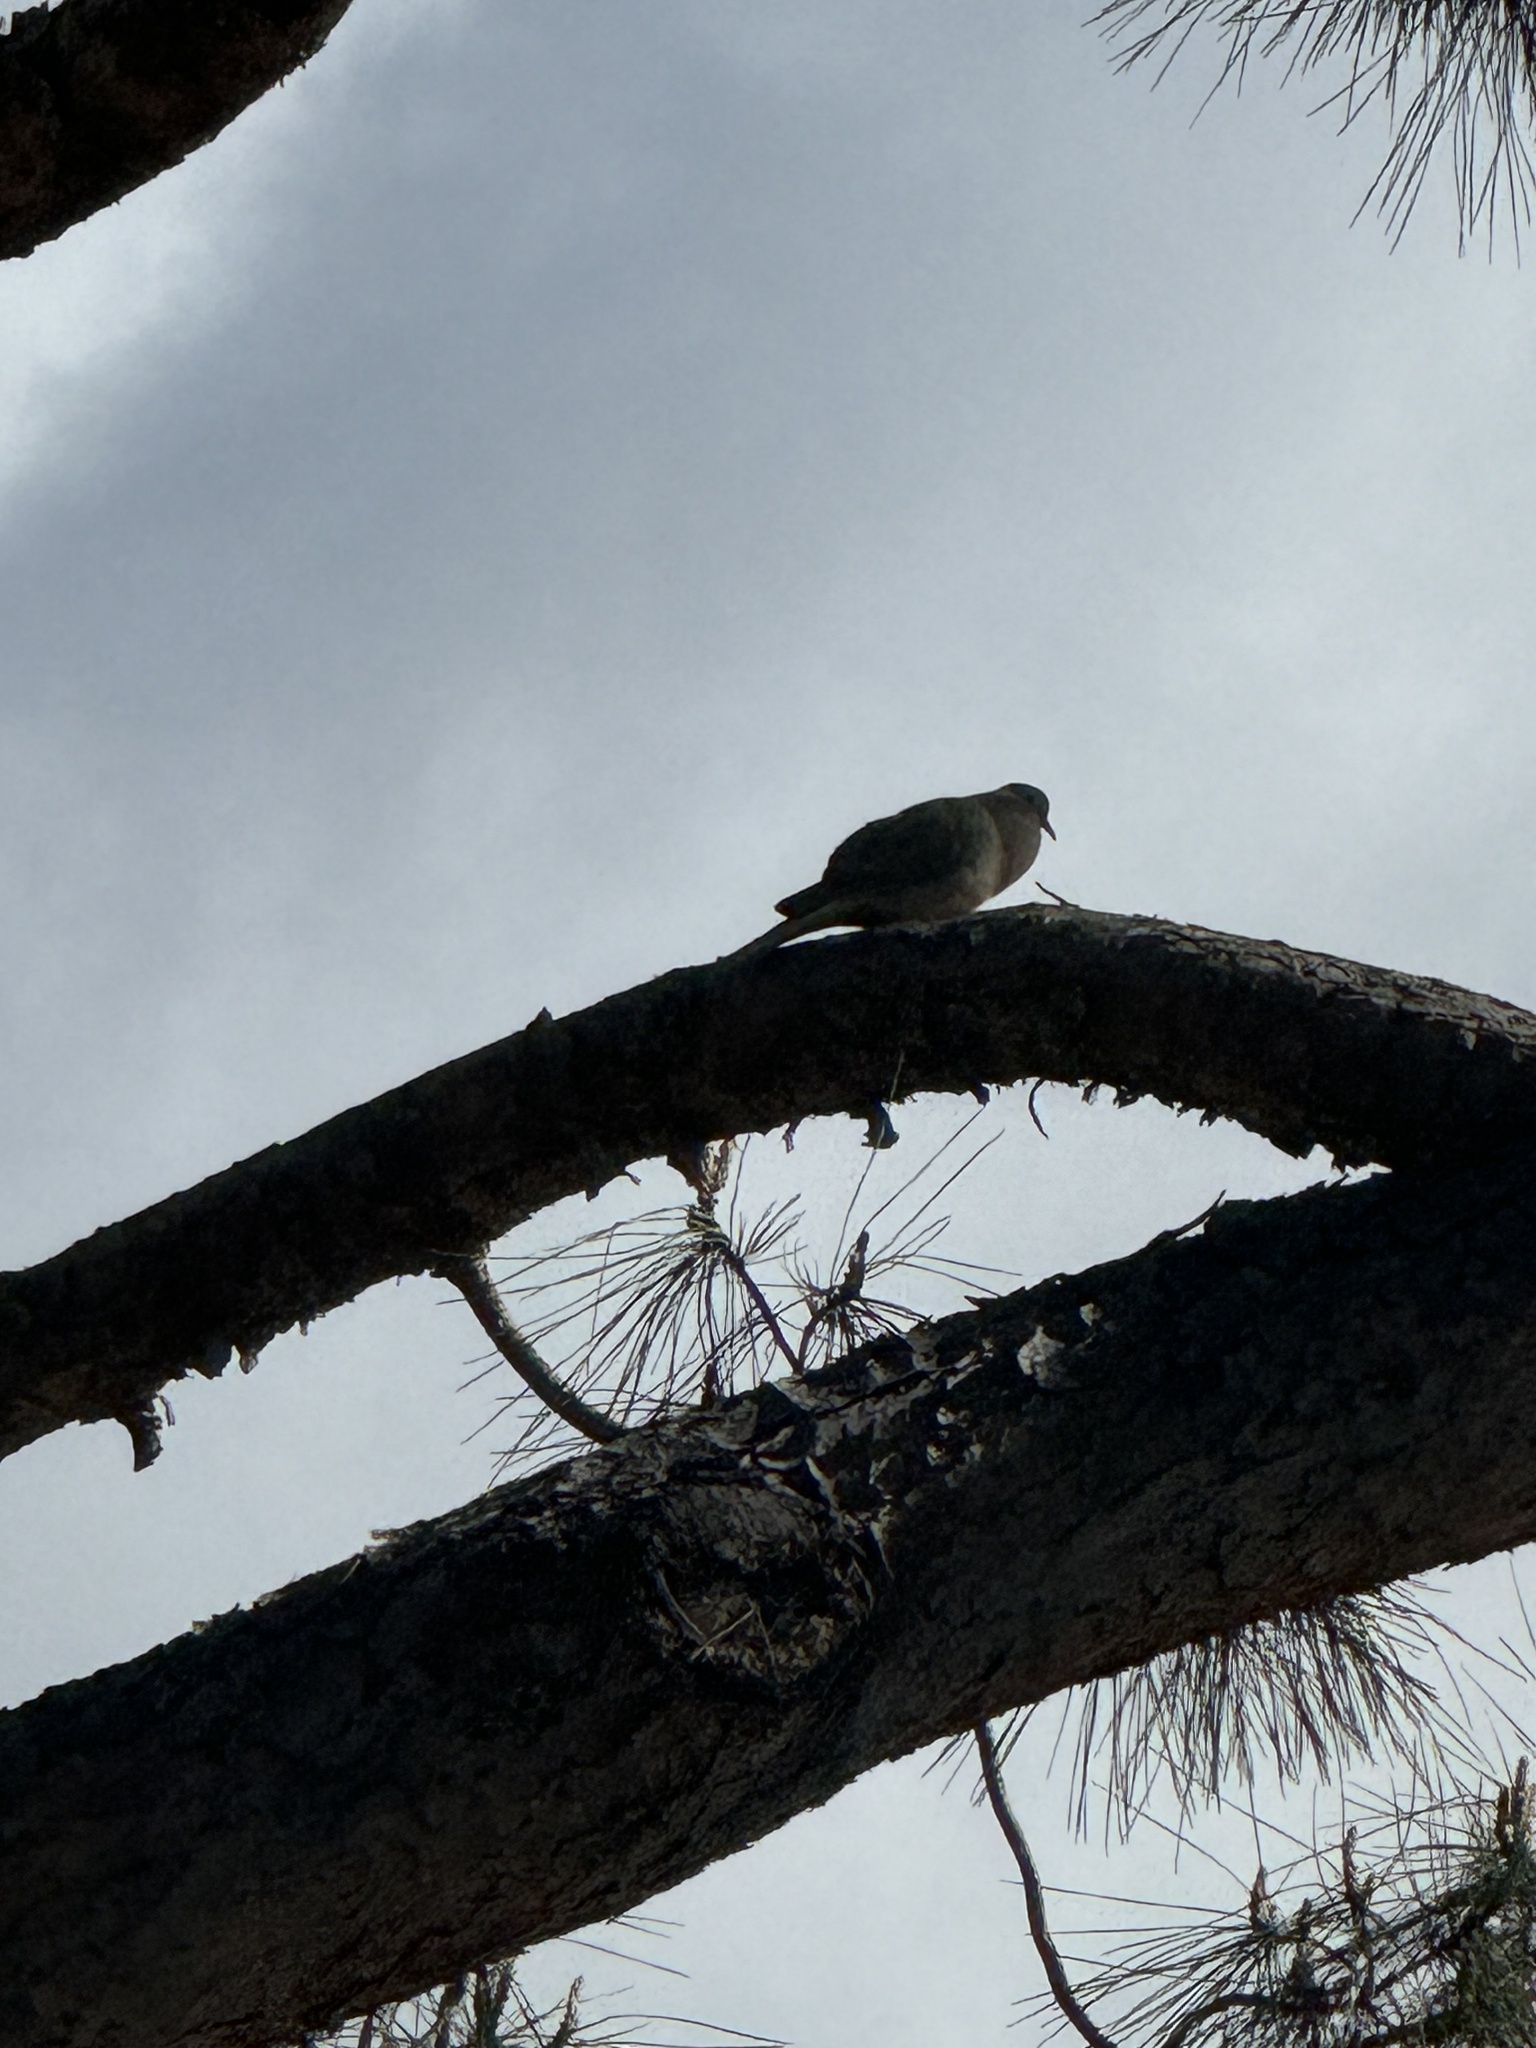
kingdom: Animalia
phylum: Chordata
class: Aves
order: Columbiformes
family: Columbidae
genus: Zenaida
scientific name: Zenaida macroura
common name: Mourning dove
